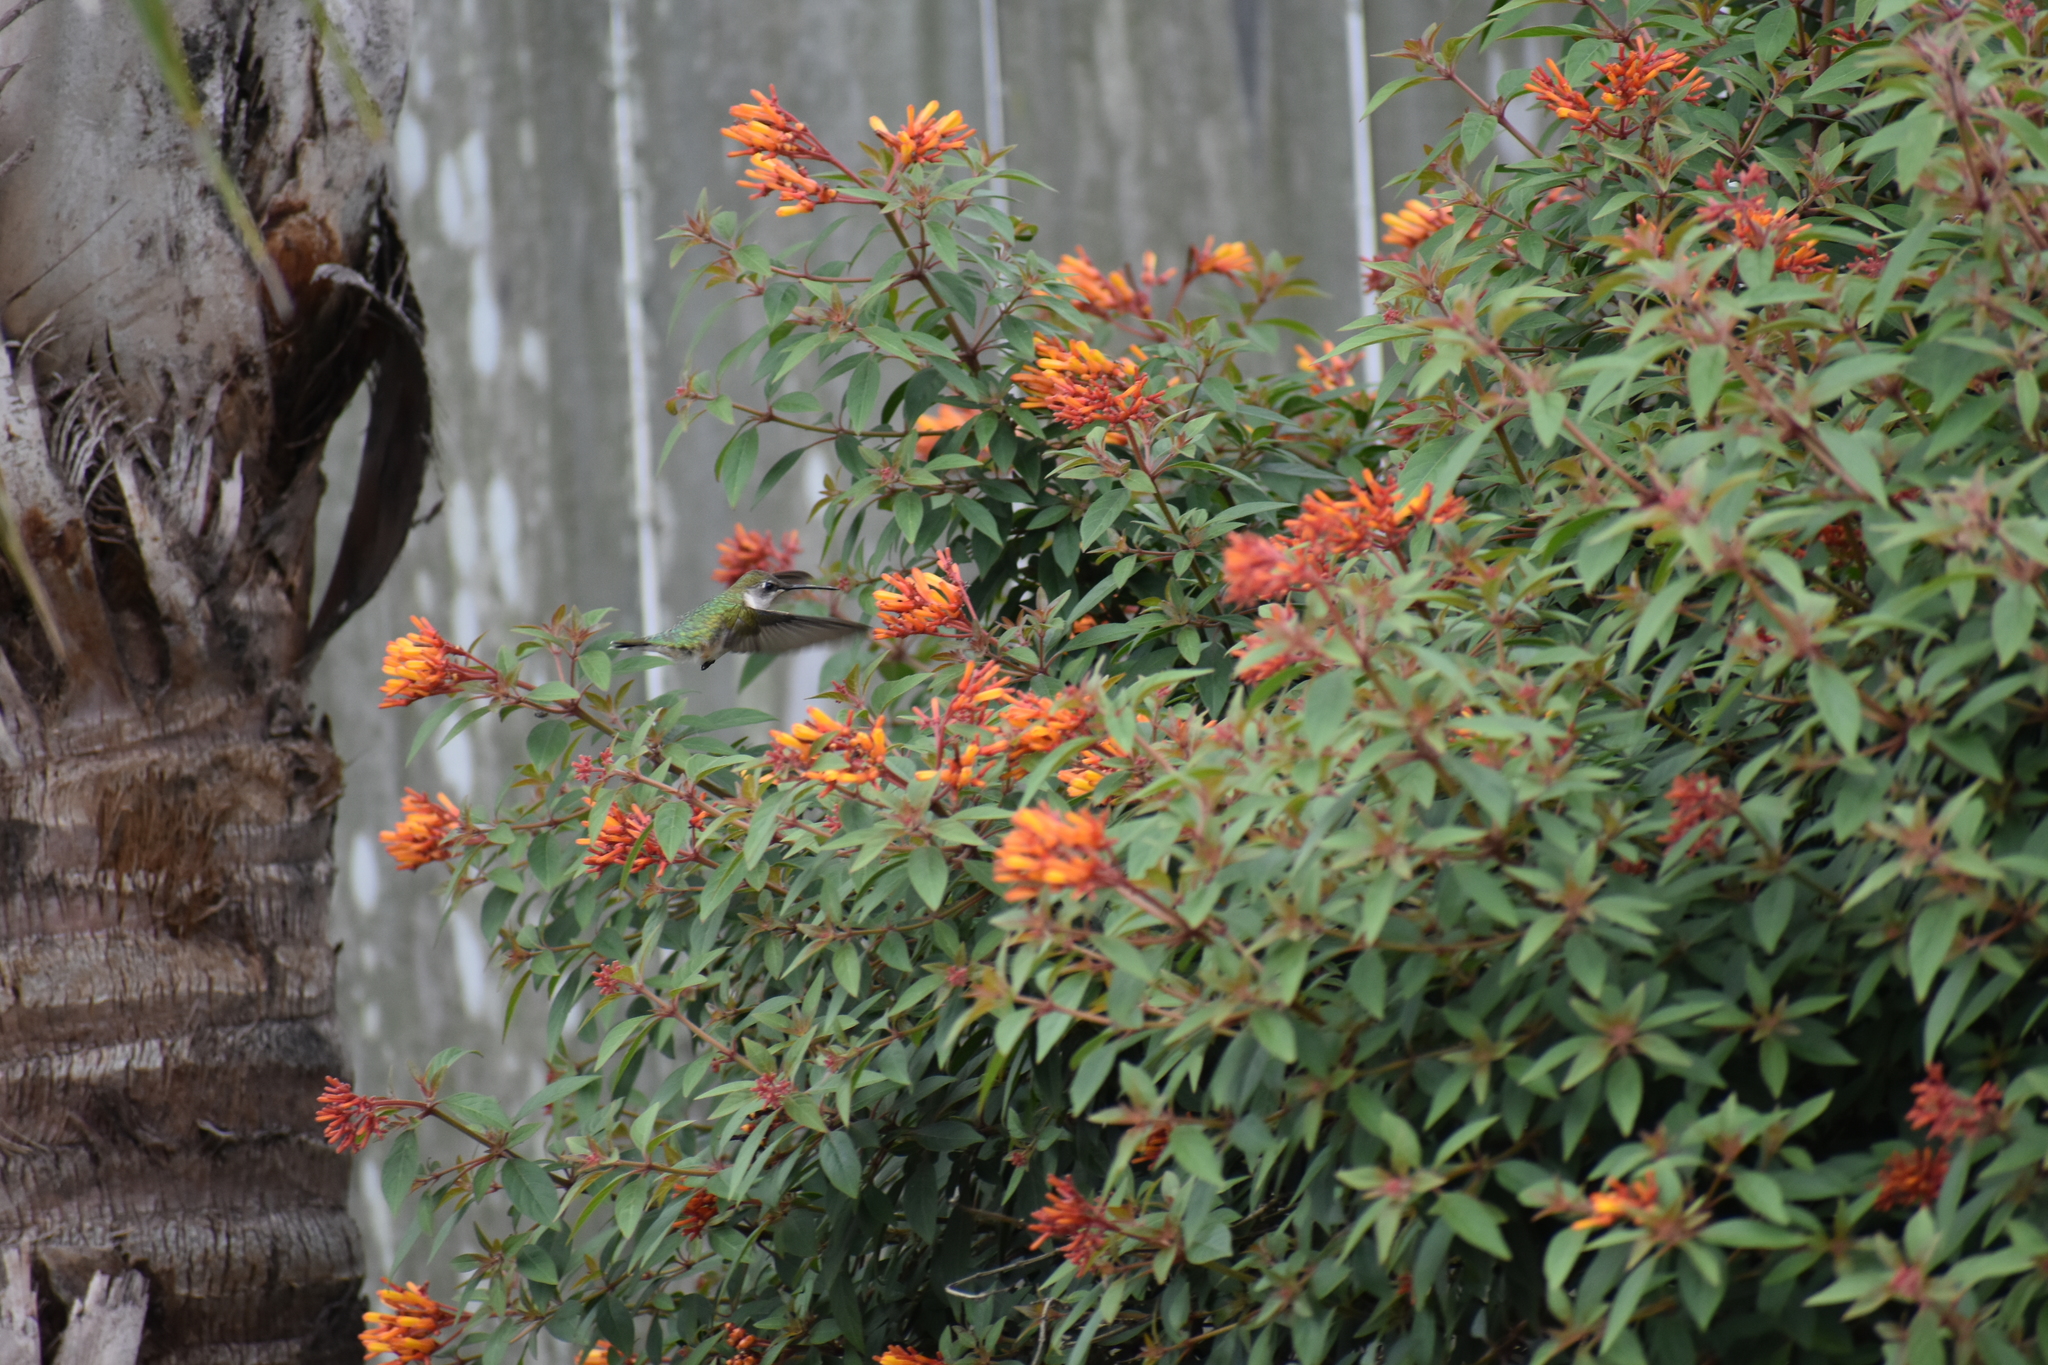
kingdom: Animalia
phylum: Chordata
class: Aves
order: Apodiformes
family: Trochilidae
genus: Archilochus
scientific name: Archilochus colubris
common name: Ruby-throated hummingbird
